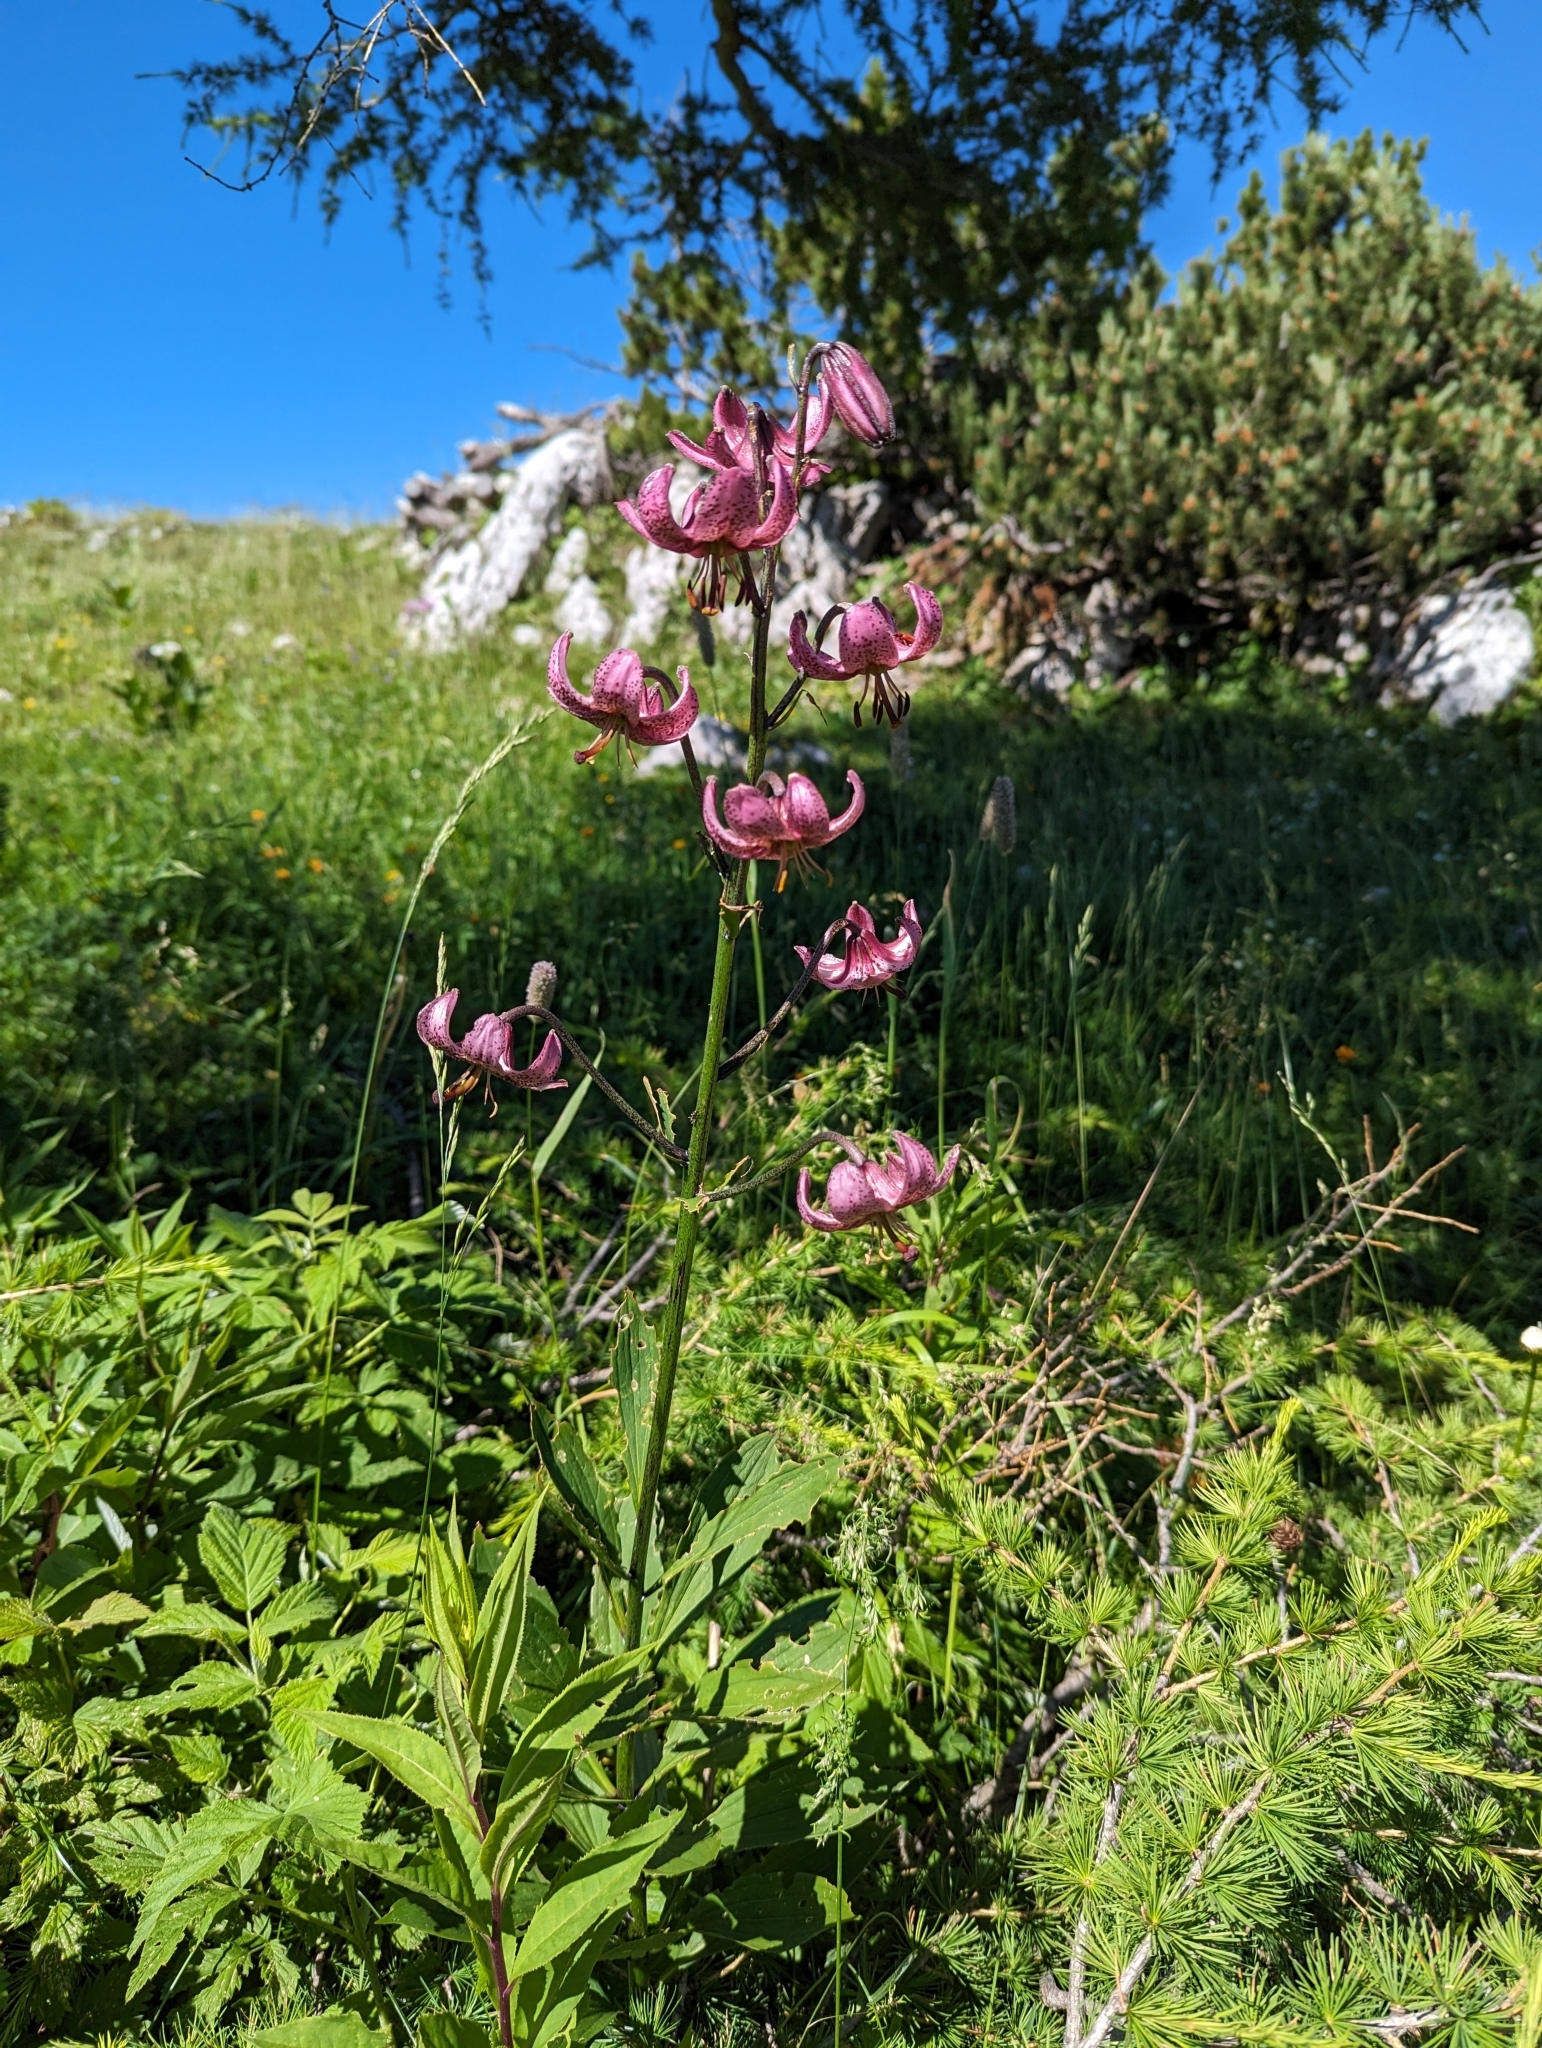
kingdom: Plantae
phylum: Tracheophyta
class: Liliopsida
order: Liliales
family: Liliaceae
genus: Lilium
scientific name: Lilium martagon
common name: Martagon lily
